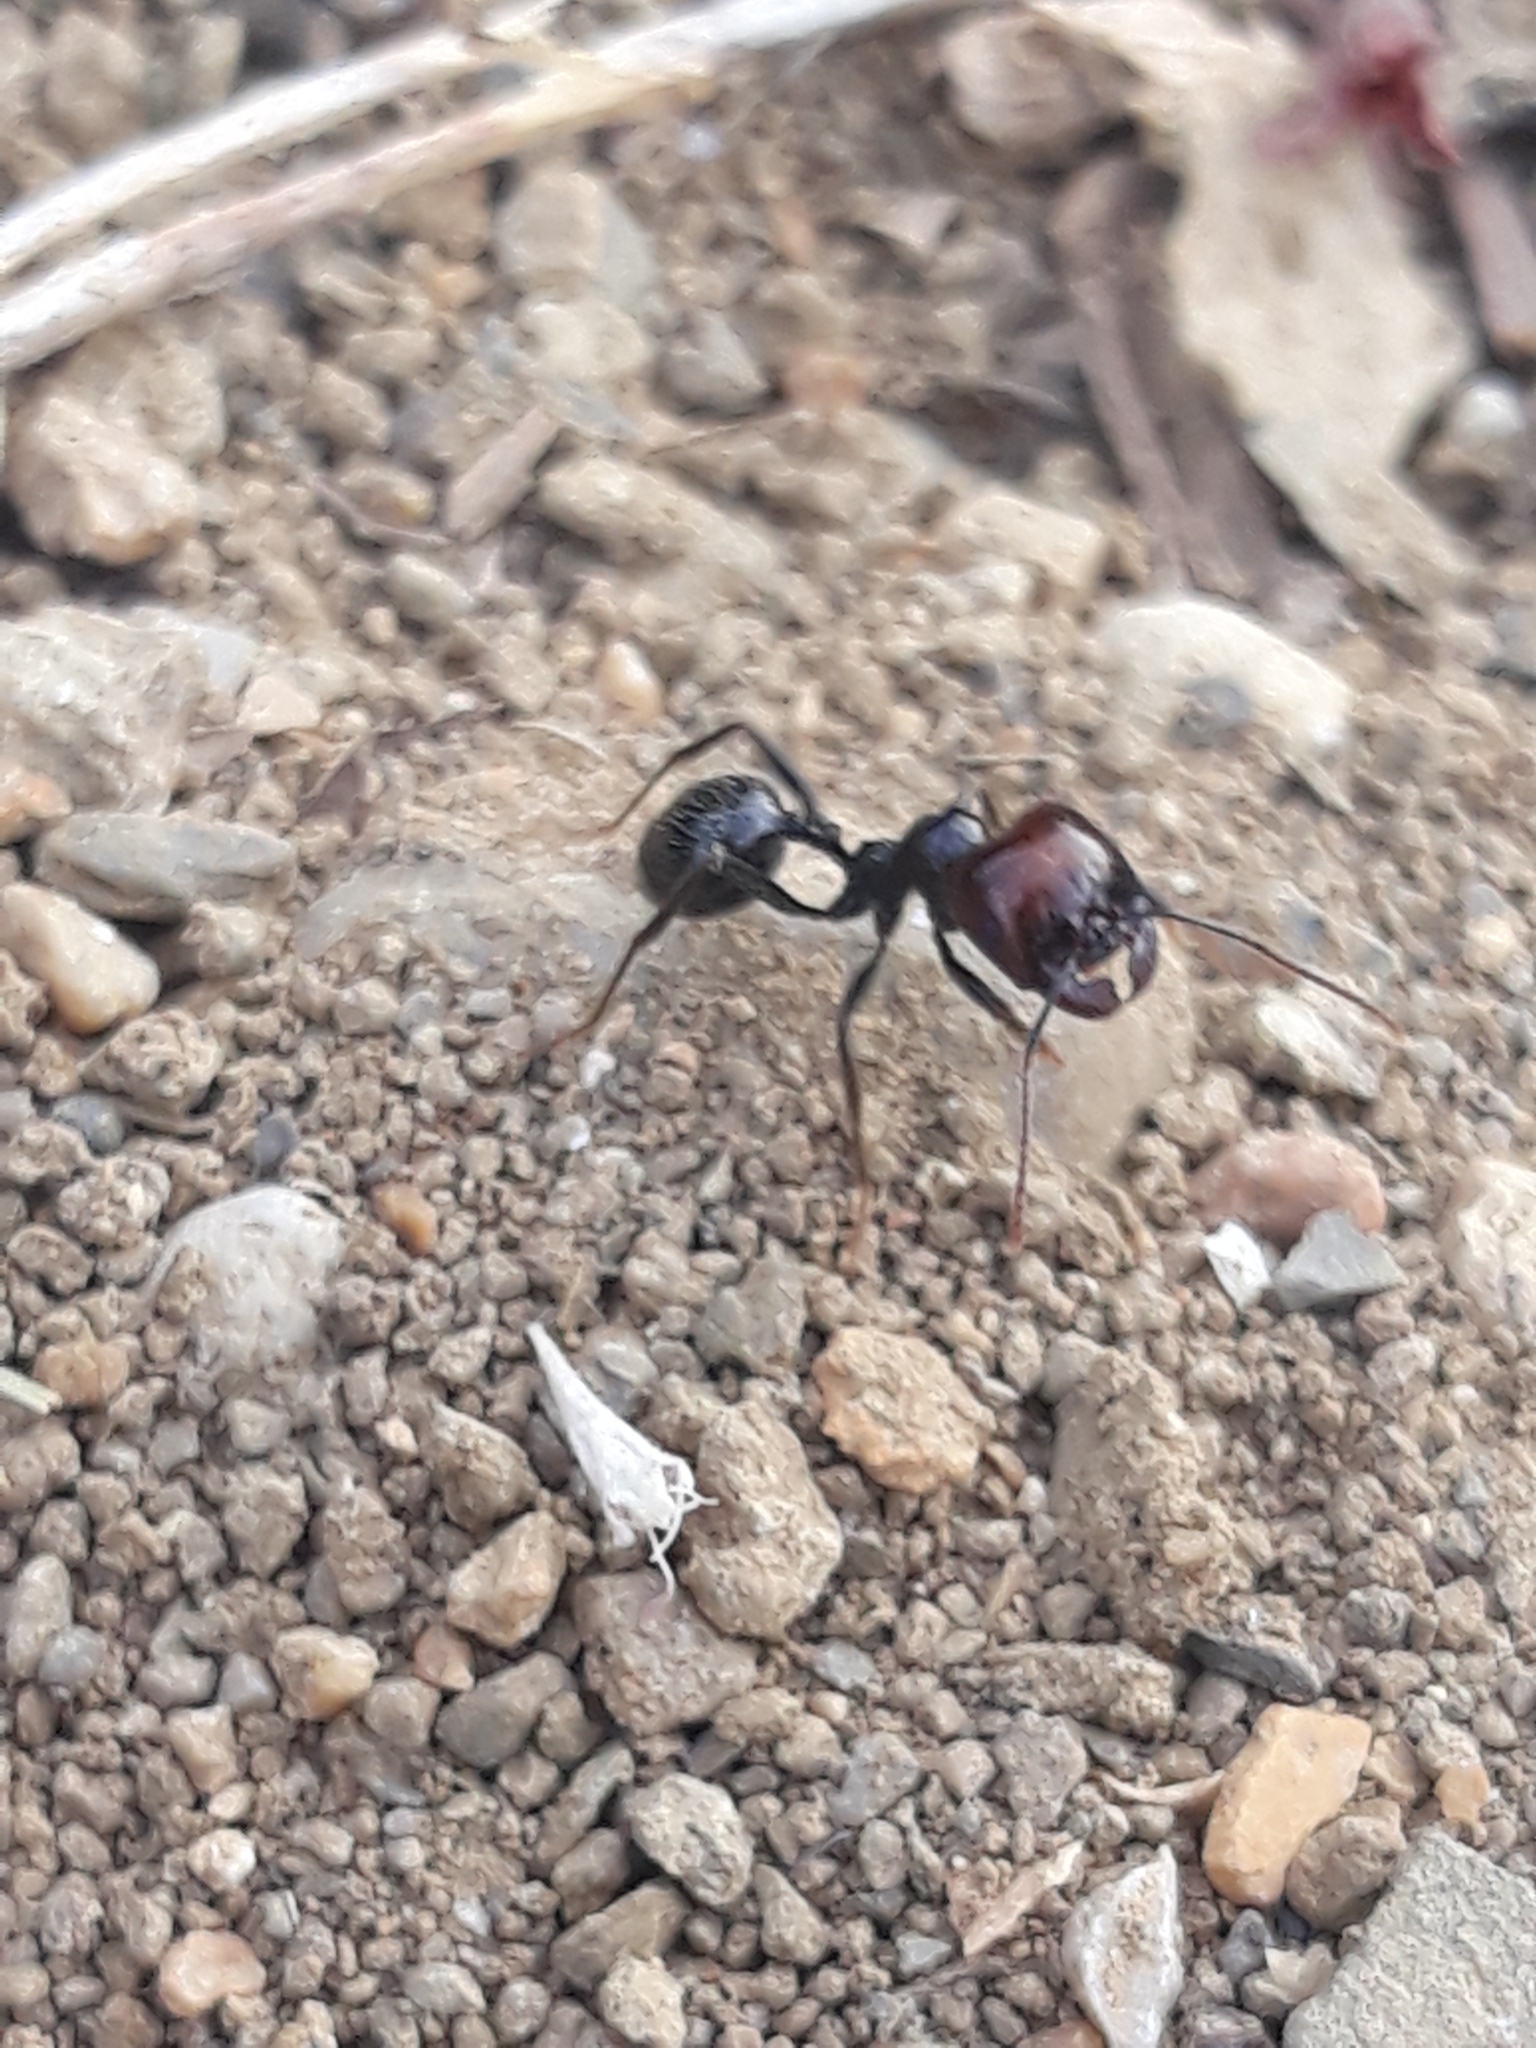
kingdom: Animalia
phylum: Arthropoda
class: Insecta
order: Hymenoptera
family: Formicidae
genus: Messor
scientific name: Messor barbarus
